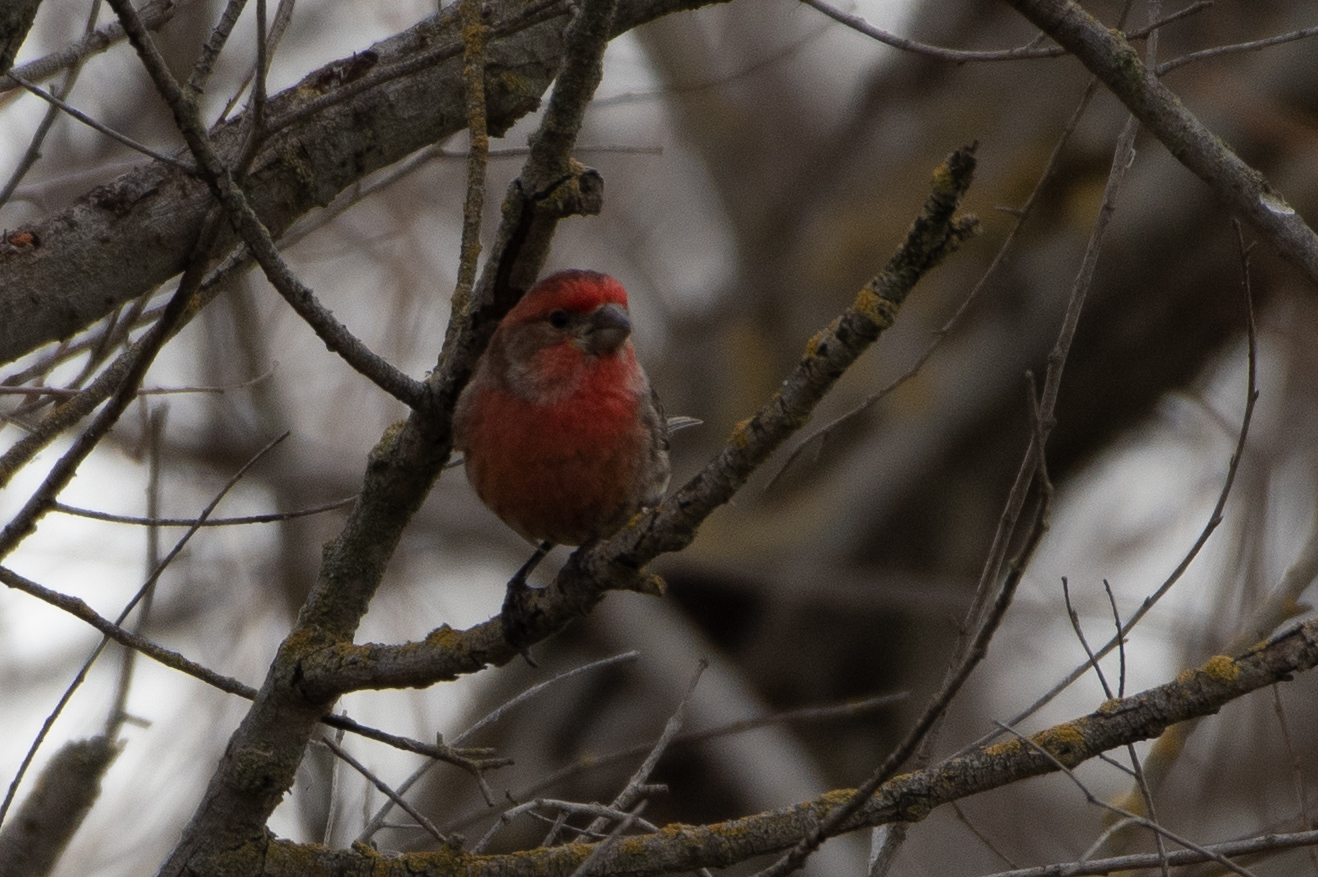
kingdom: Animalia
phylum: Chordata
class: Aves
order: Passeriformes
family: Fringillidae
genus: Haemorhous
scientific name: Haemorhous mexicanus
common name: House finch
